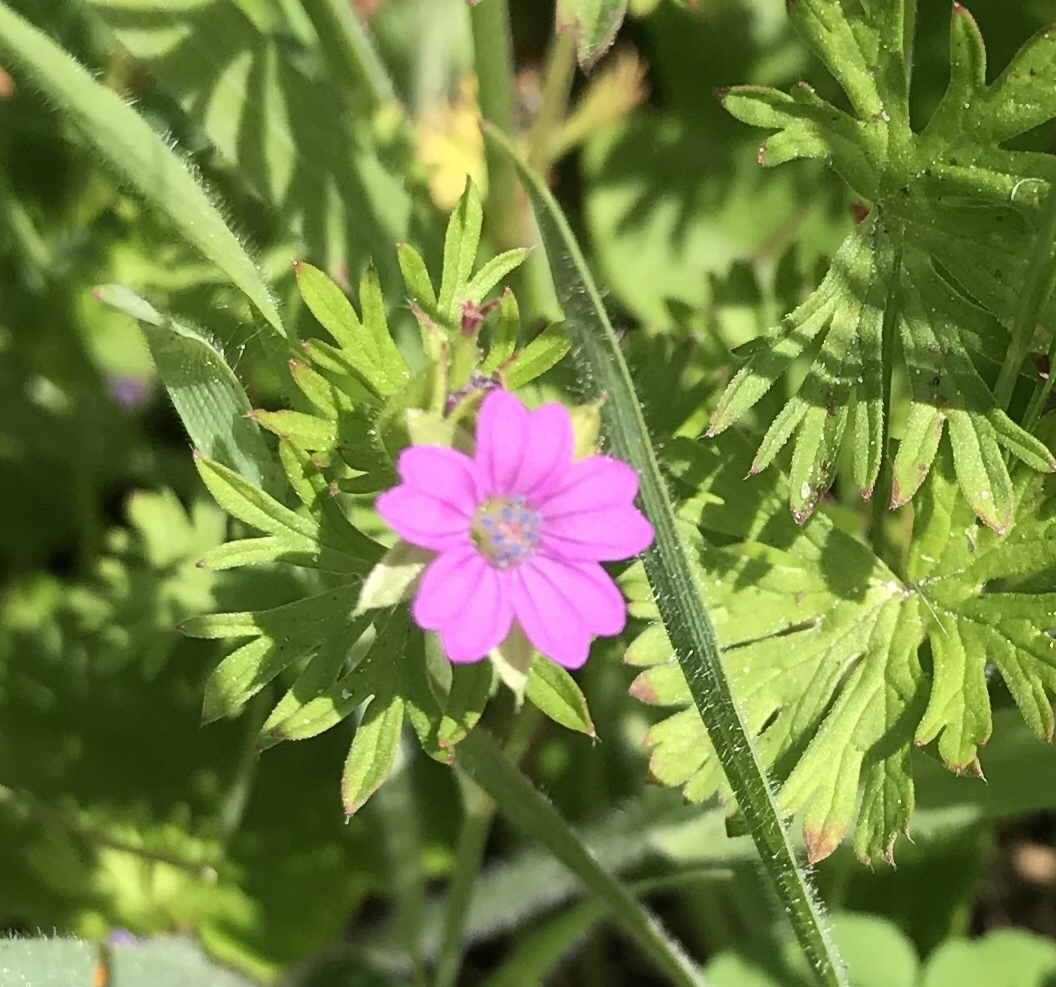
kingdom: Plantae
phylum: Tracheophyta
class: Magnoliopsida
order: Geraniales
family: Geraniaceae
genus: Geranium
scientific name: Geranium dissectum
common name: Cut-leaved crane's-bill
